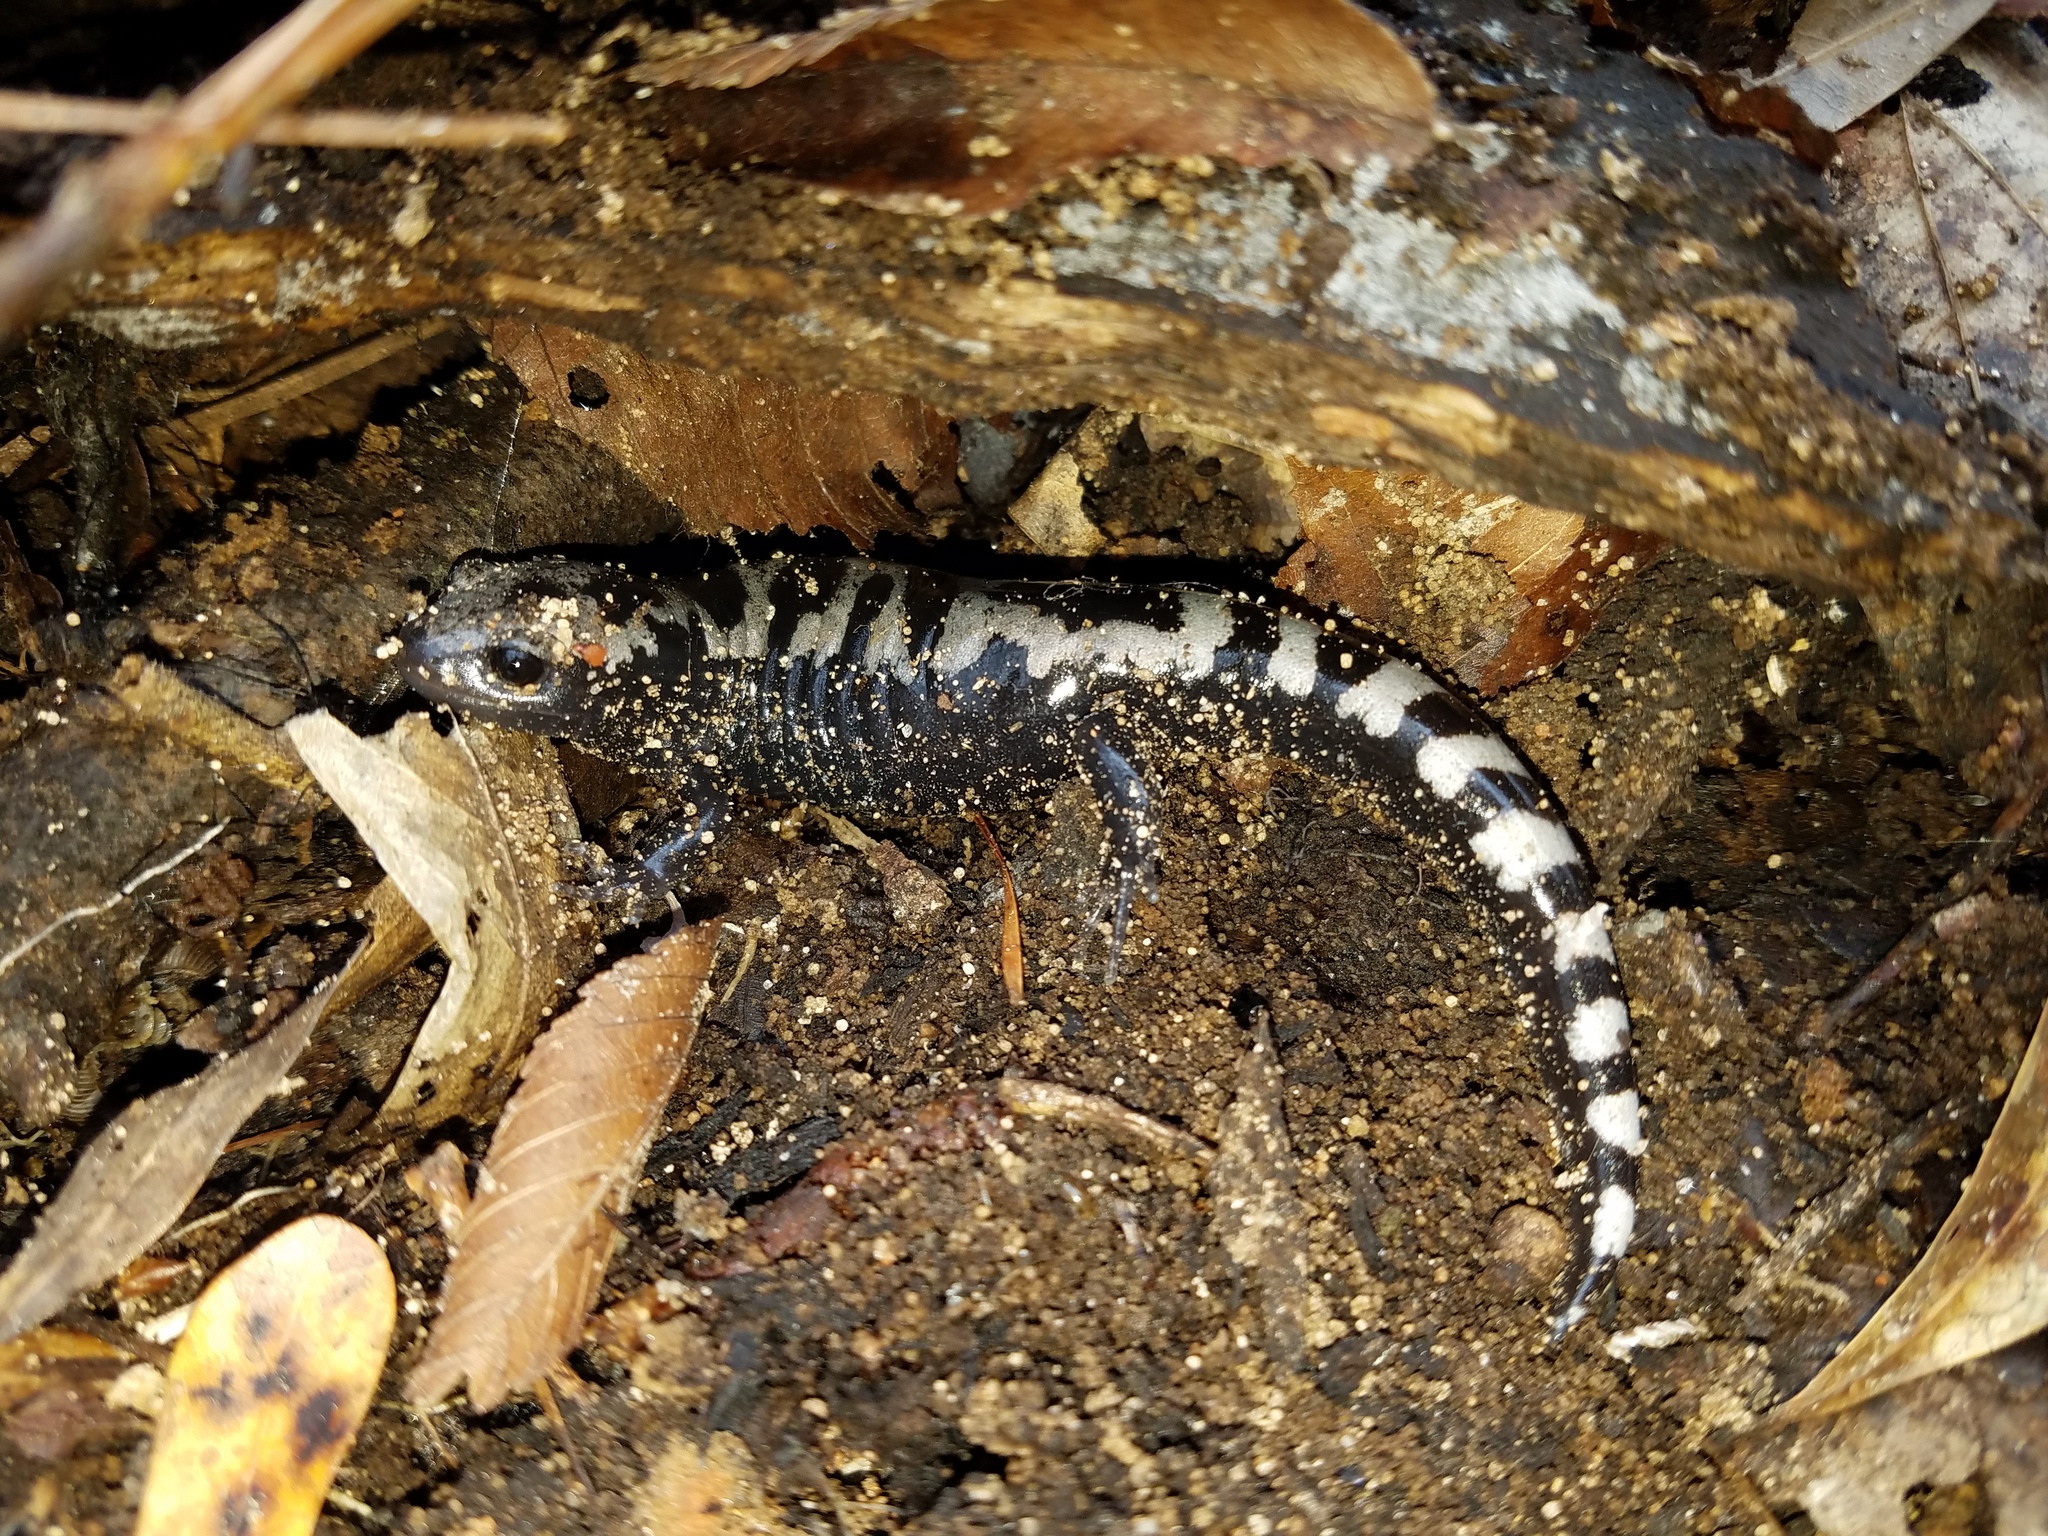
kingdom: Animalia
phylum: Chordata
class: Amphibia
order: Caudata
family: Ambystomatidae
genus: Ambystoma
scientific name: Ambystoma opacum
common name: Marbled salamander
